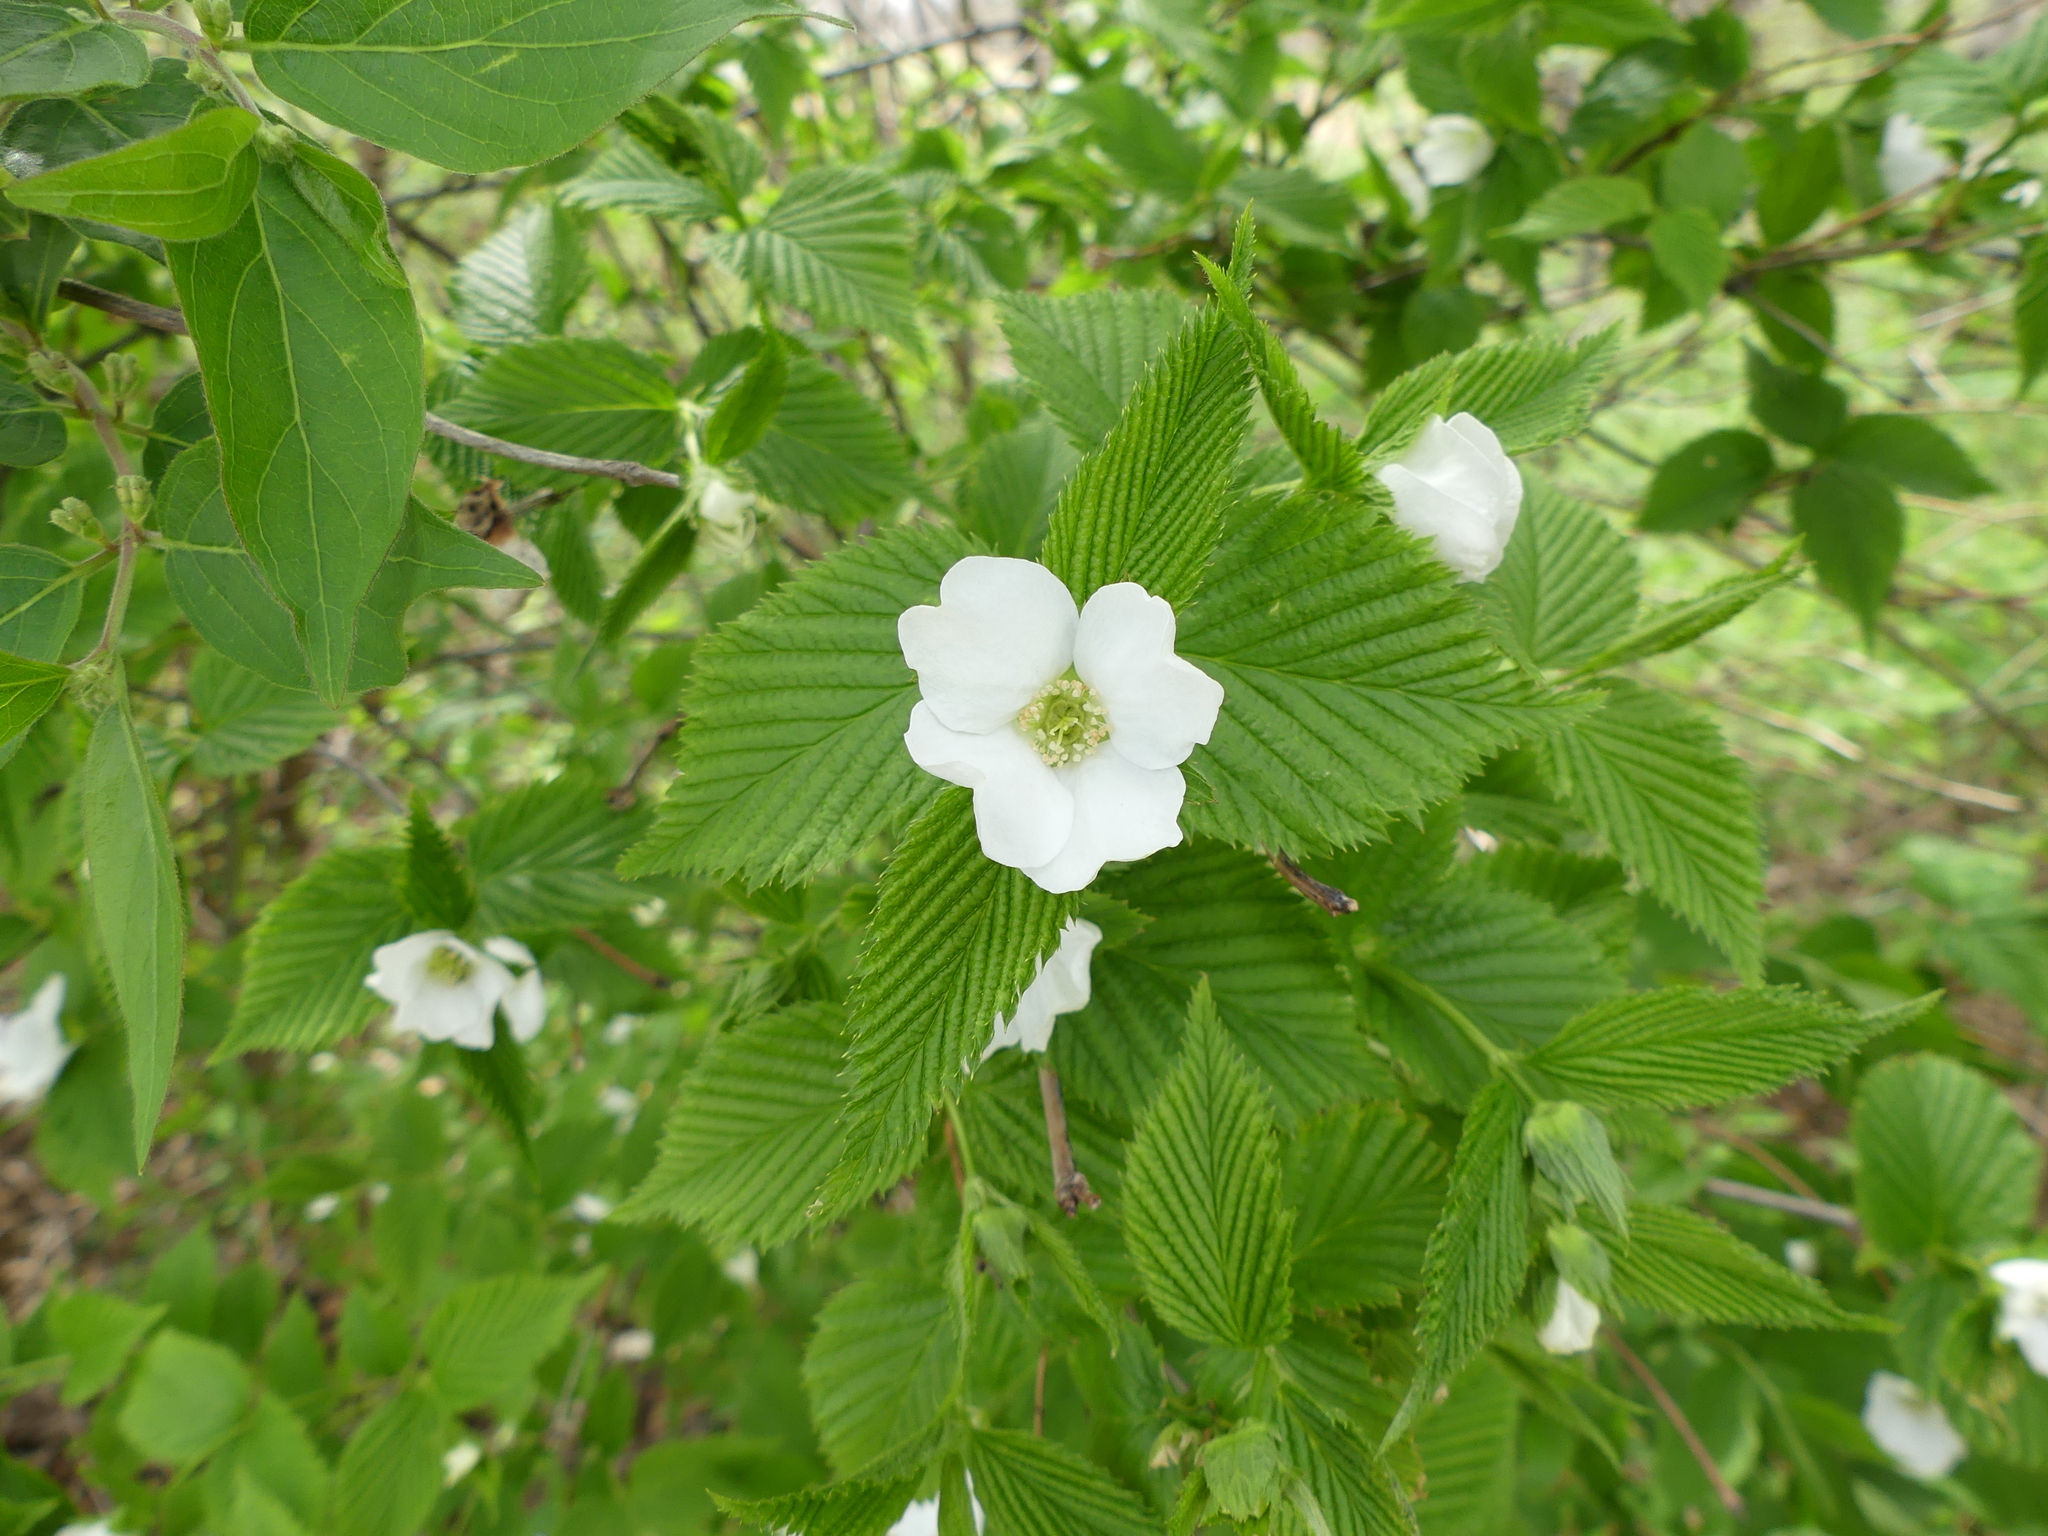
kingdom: Plantae
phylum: Tracheophyta
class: Magnoliopsida
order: Rosales
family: Rosaceae
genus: Rhodotypos
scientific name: Rhodotypos scandens
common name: Jetbead
